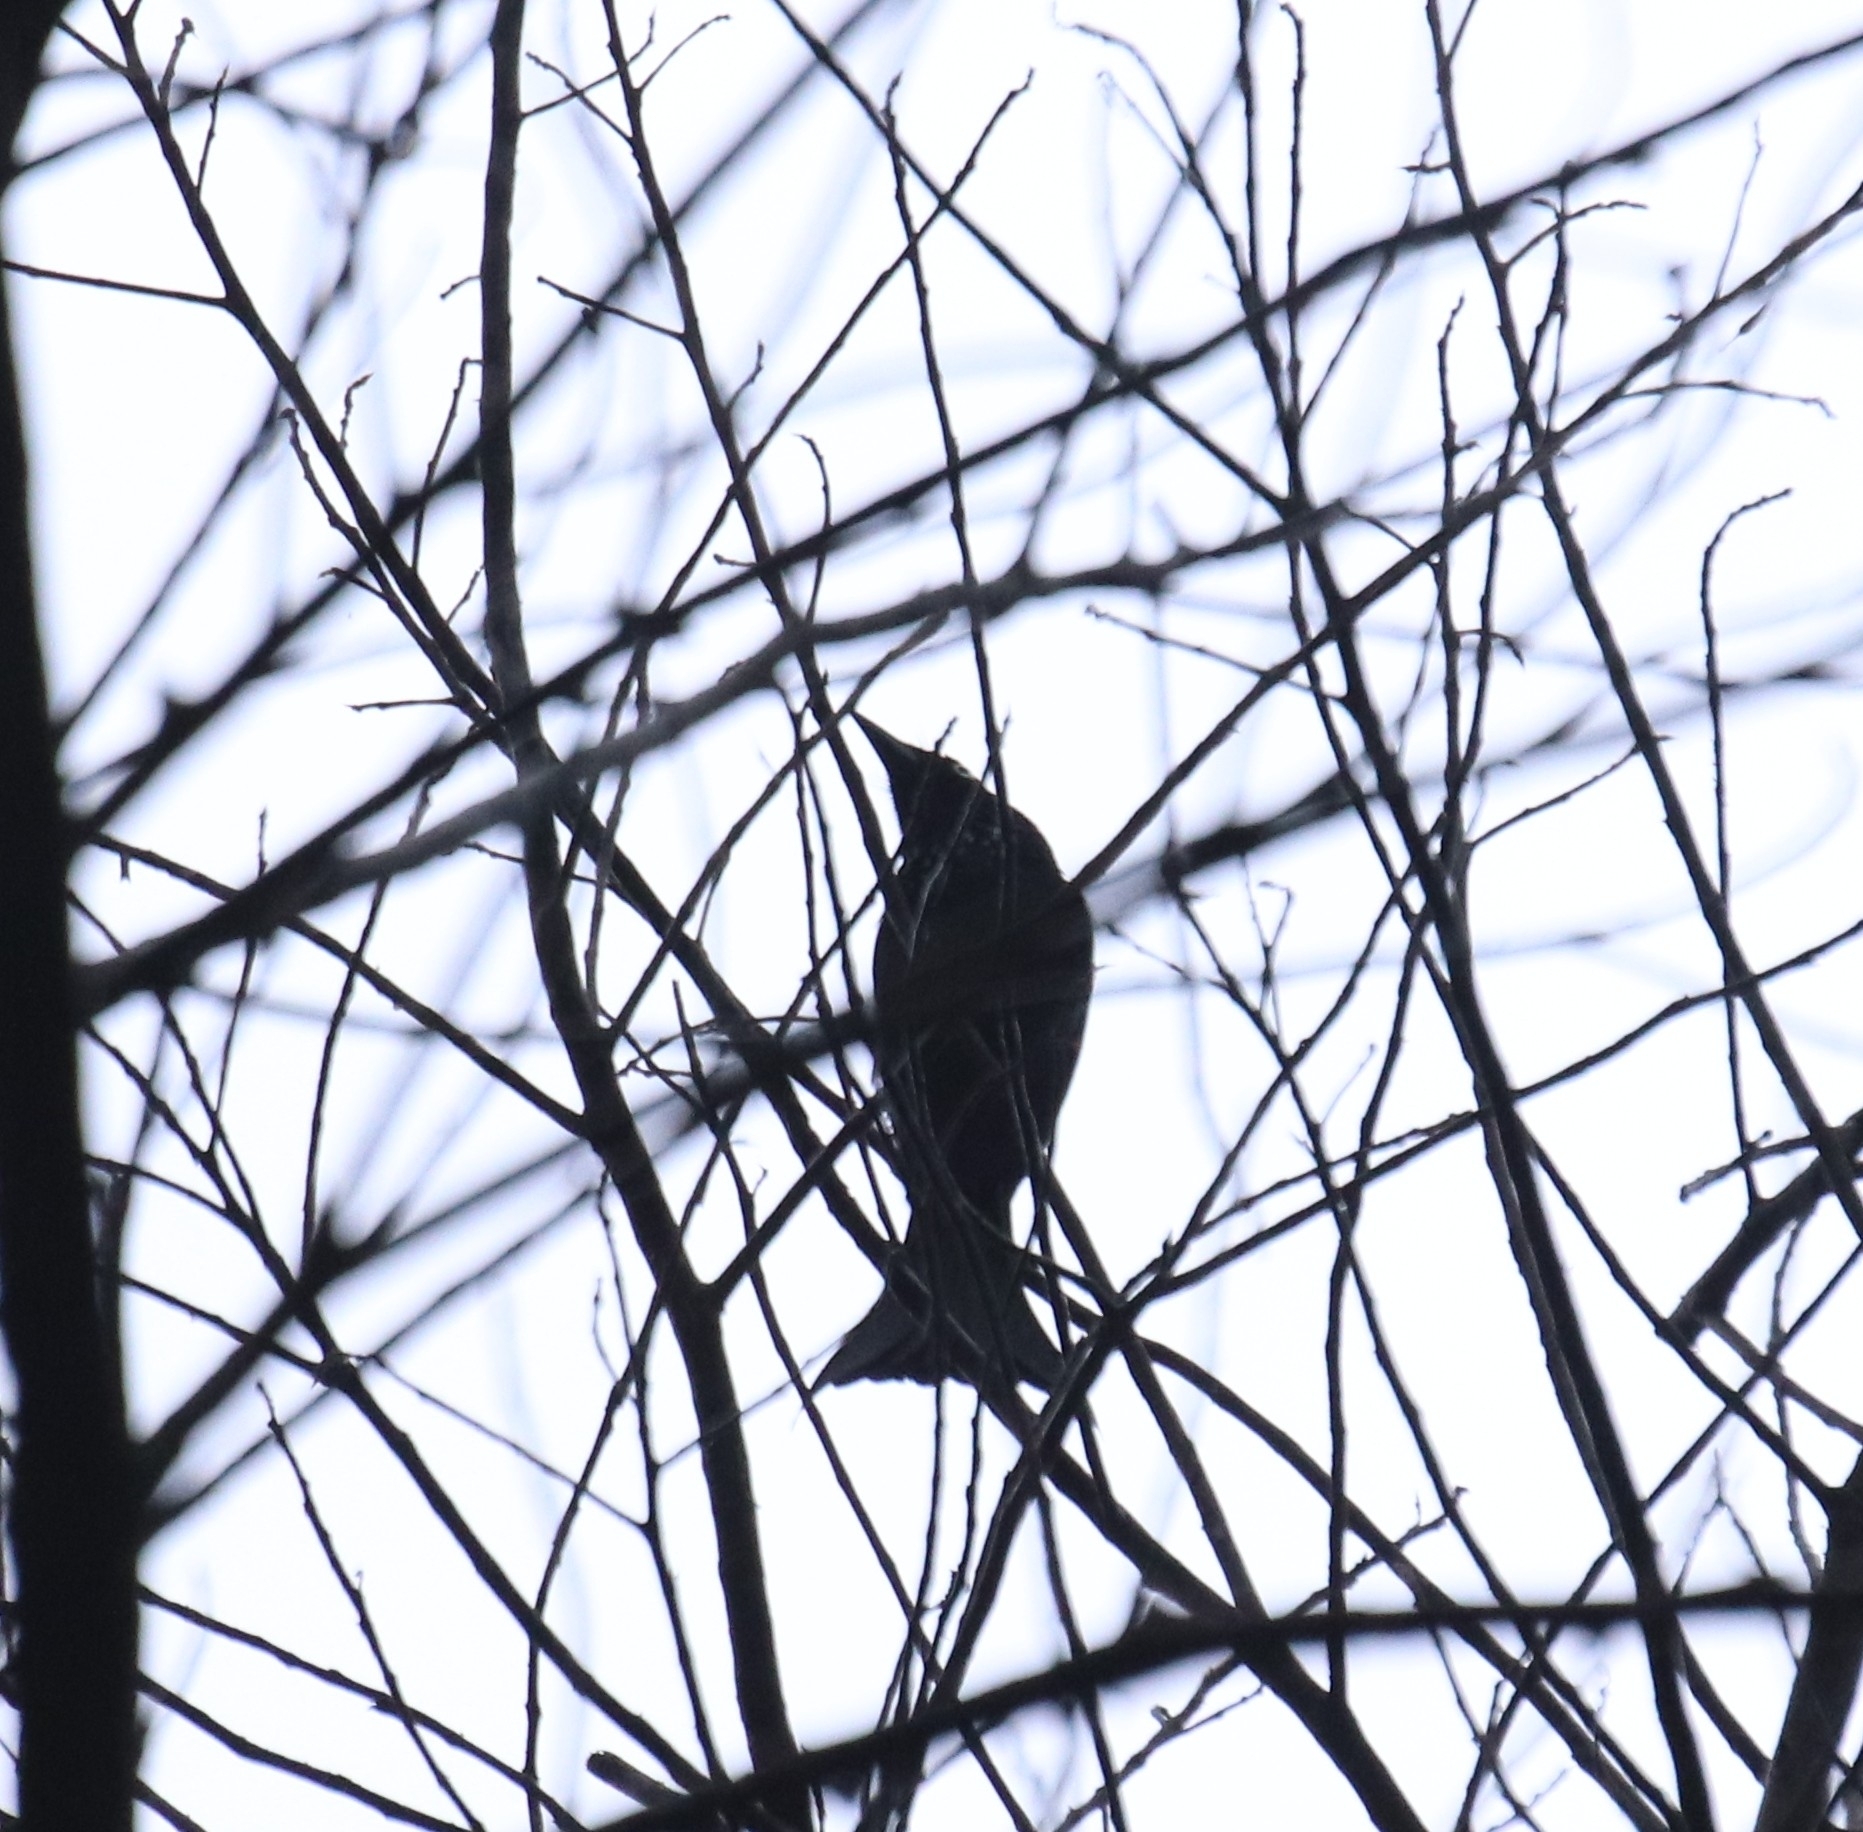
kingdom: Animalia
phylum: Chordata
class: Aves
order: Passeriformes
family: Dicruridae
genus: Dicrurus
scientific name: Dicrurus hottentottus
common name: Hair-crested drongo
